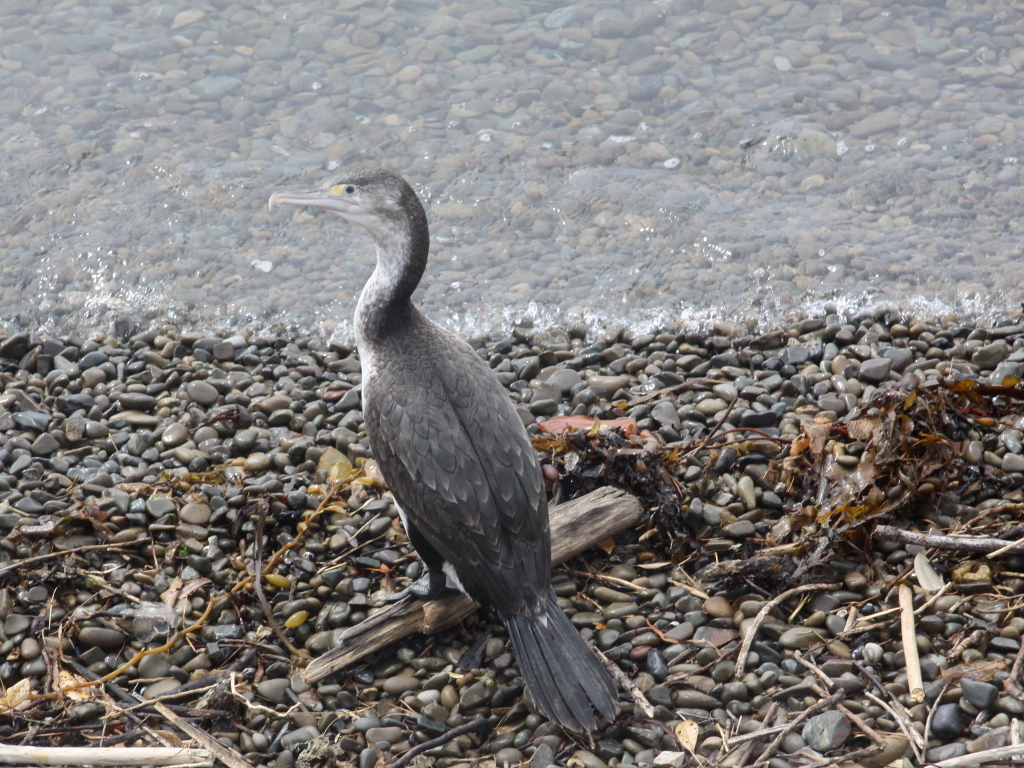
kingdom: Animalia
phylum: Chordata
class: Aves
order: Suliformes
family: Phalacrocoracidae
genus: Phalacrocorax
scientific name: Phalacrocorax varius
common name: Pied cormorant
